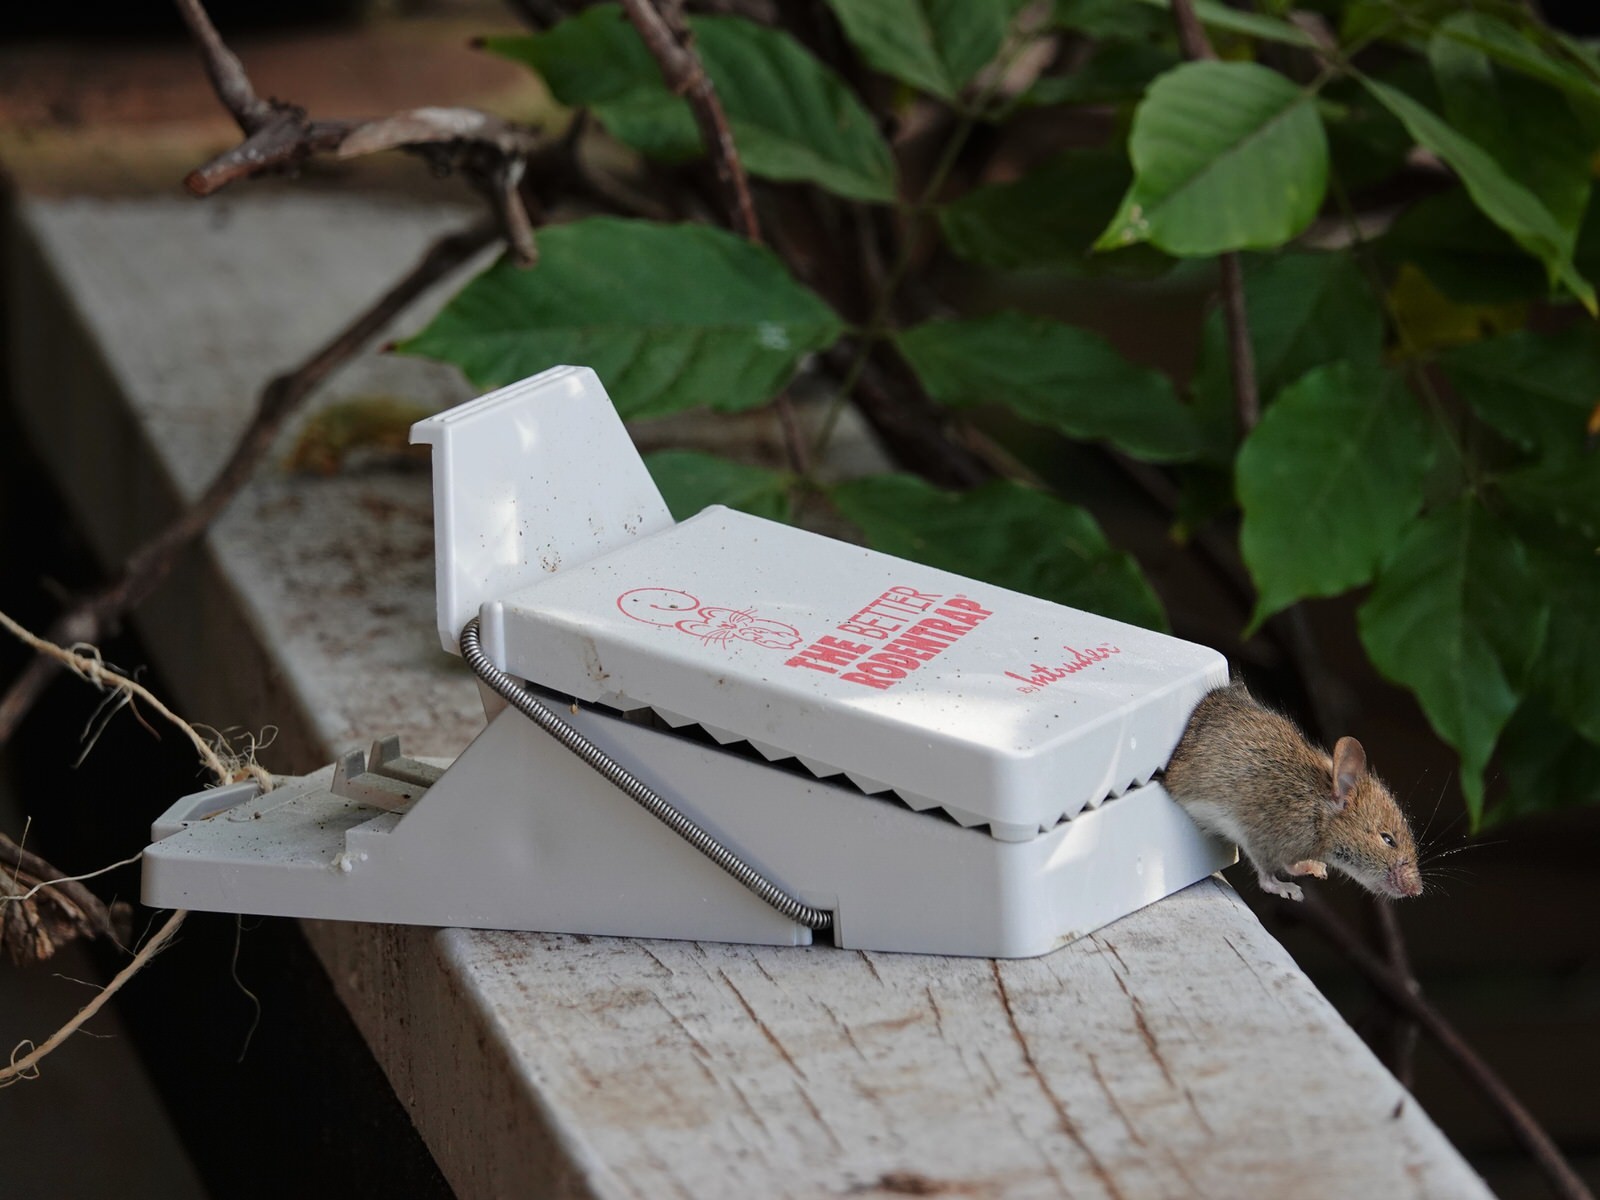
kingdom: Animalia
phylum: Chordata
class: Mammalia
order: Rodentia
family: Muridae
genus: Mus
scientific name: Mus musculus
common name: House mouse
